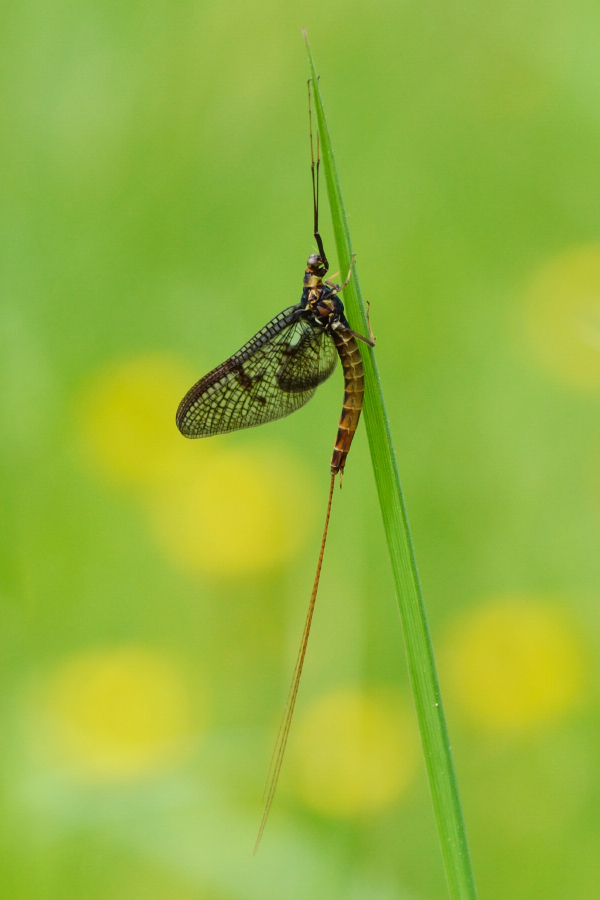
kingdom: Animalia
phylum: Arthropoda
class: Insecta
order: Ephemeroptera
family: Ephemeridae
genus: Ephemera
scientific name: Ephemera vulgata
